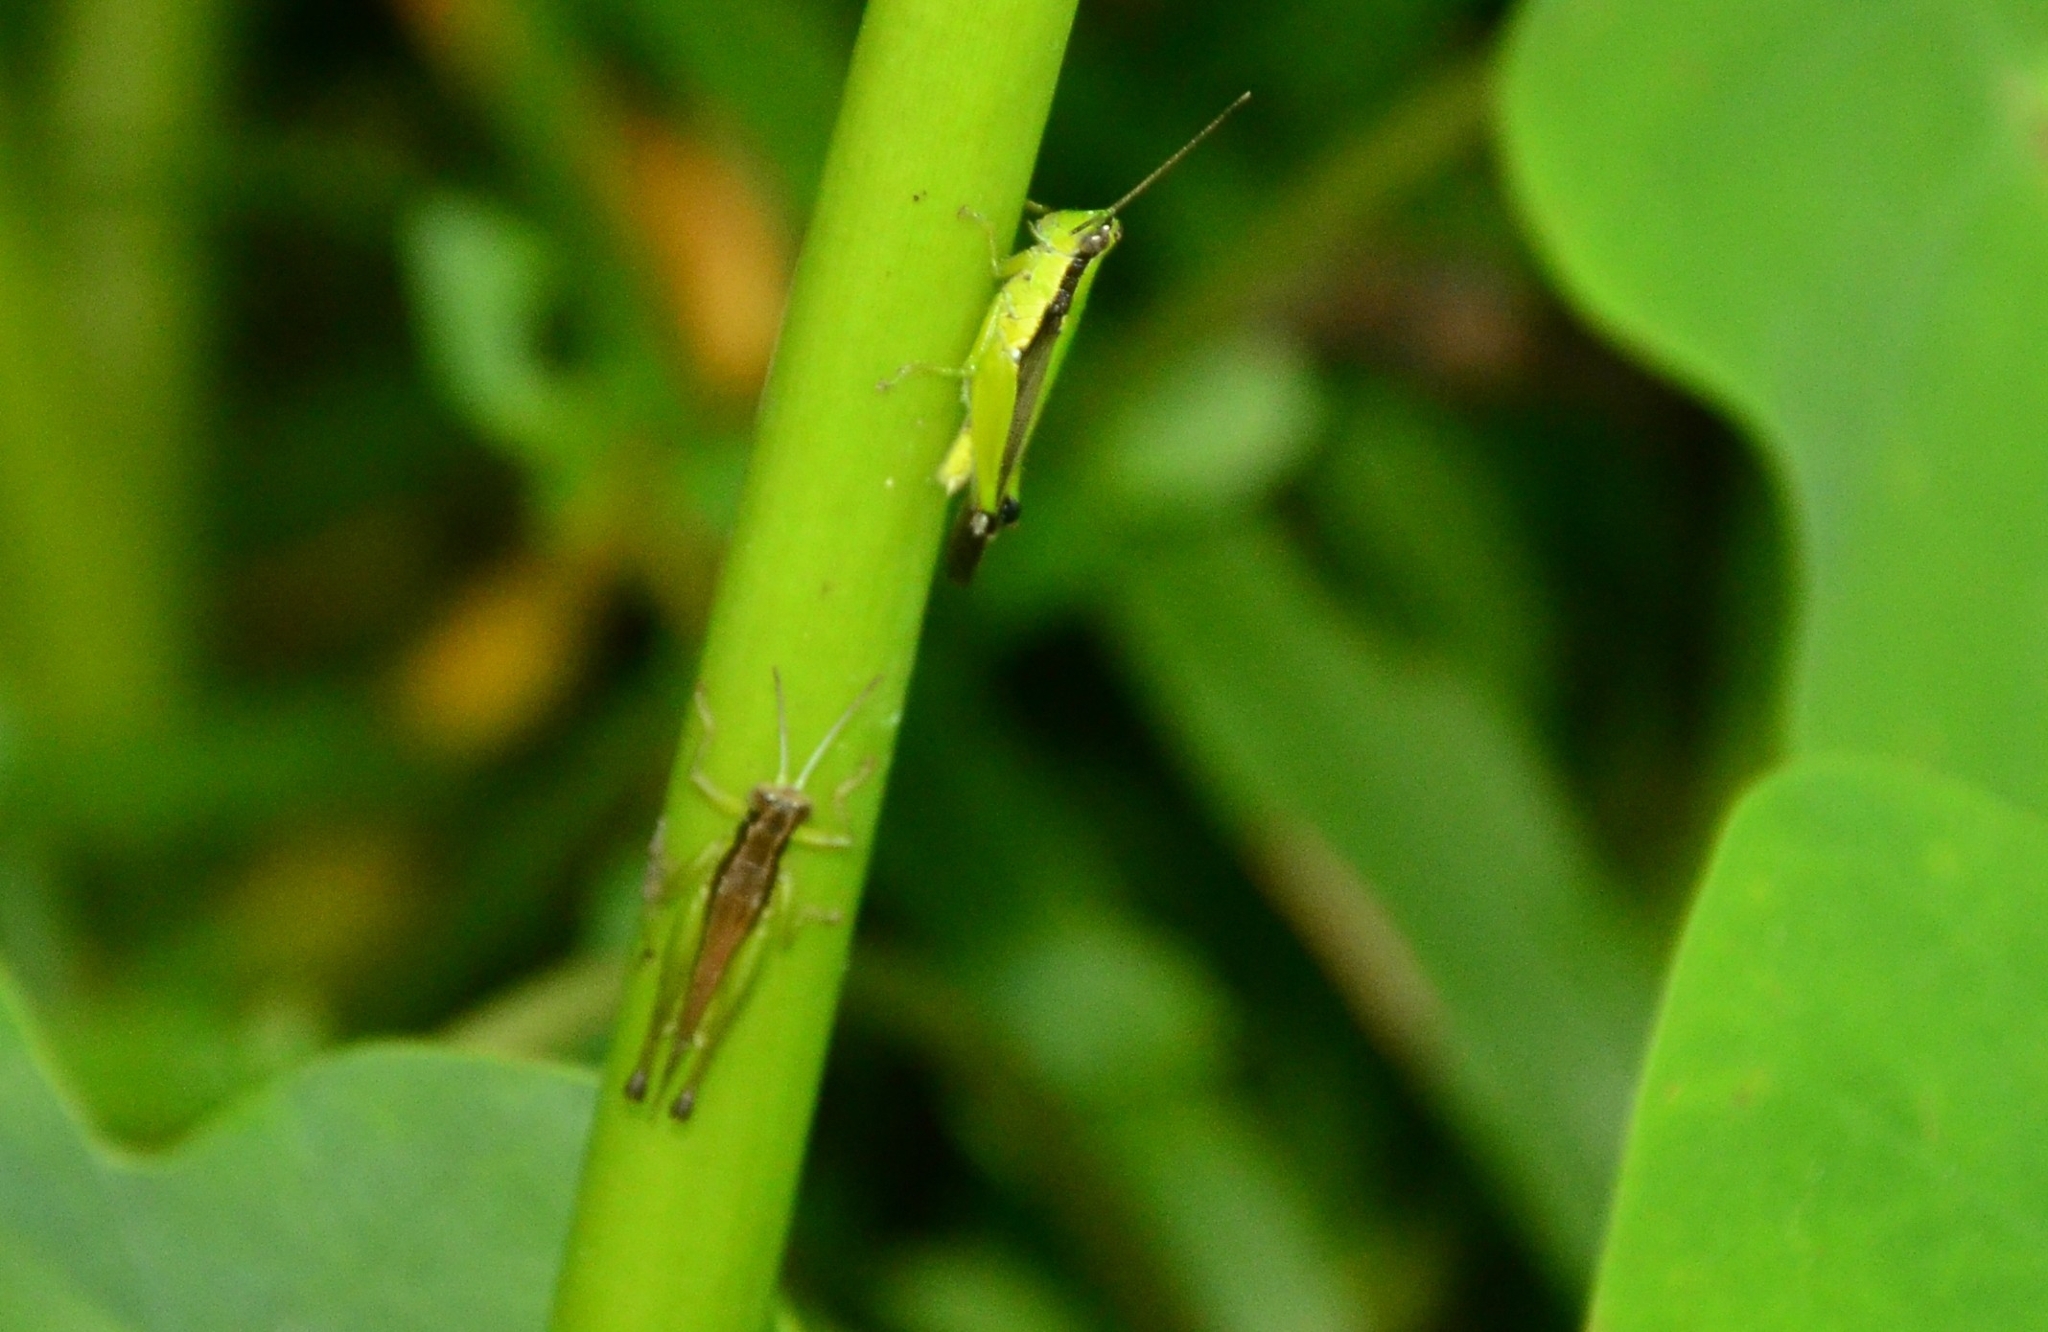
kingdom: Animalia
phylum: Arthropoda
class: Insecta
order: Orthoptera
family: Acrididae
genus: Gesonula
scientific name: Gesonula mundata
